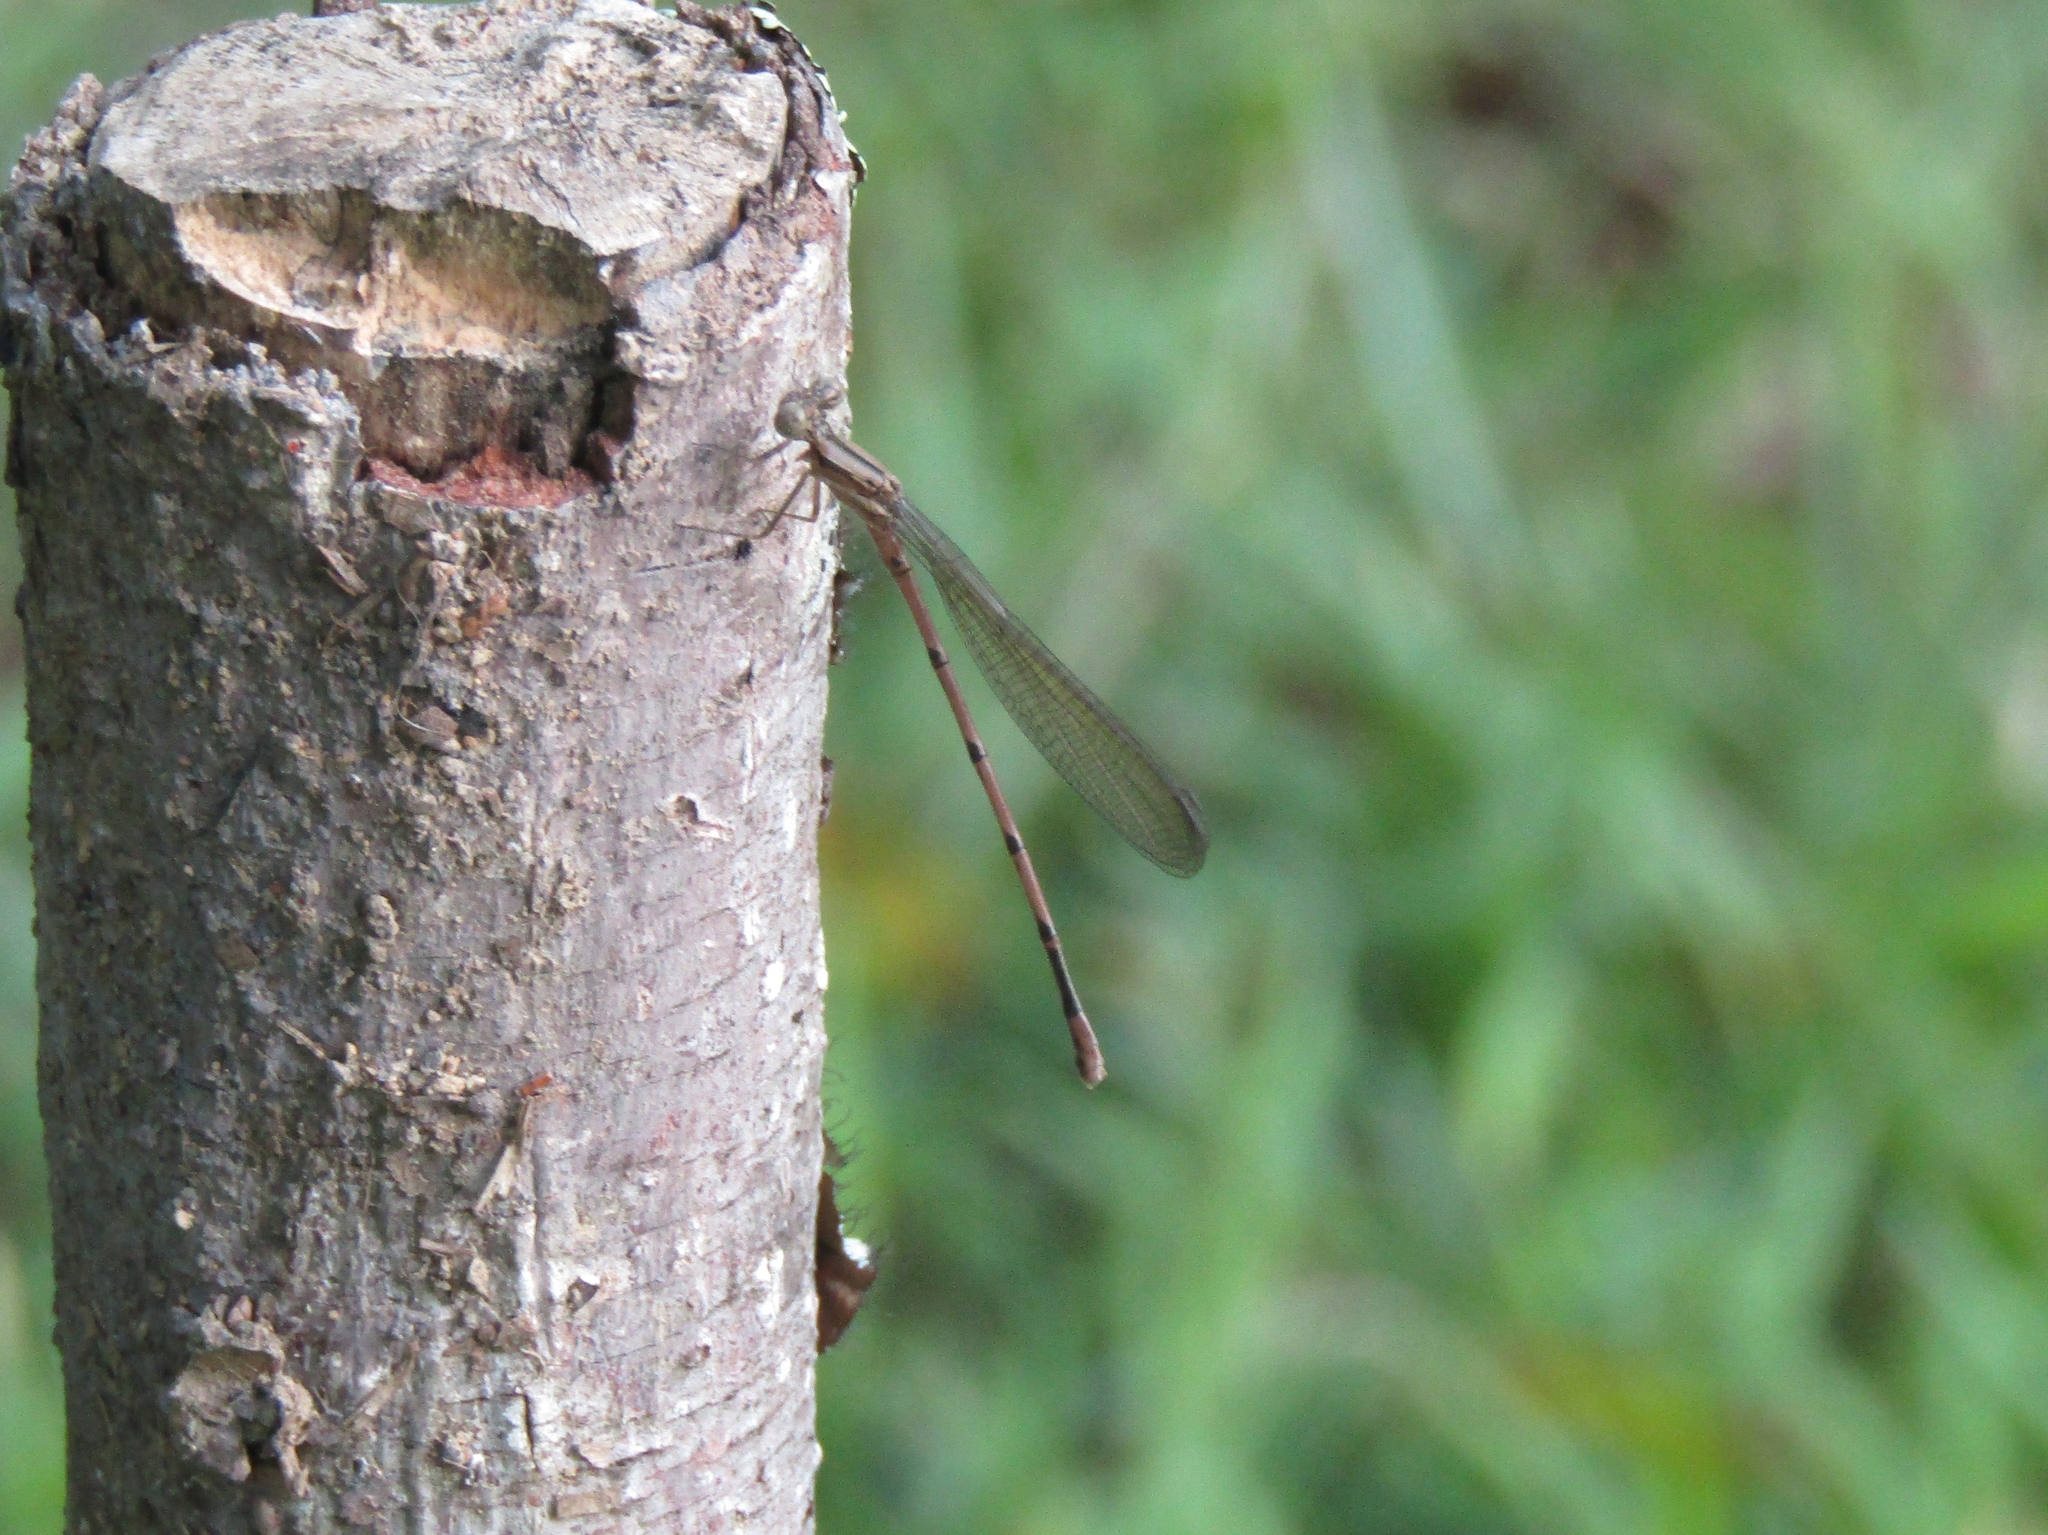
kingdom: Animalia
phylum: Arthropoda
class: Insecta
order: Odonata
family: Coenagrionidae
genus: Argia
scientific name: Argia fumipennis
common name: Variable dancer
